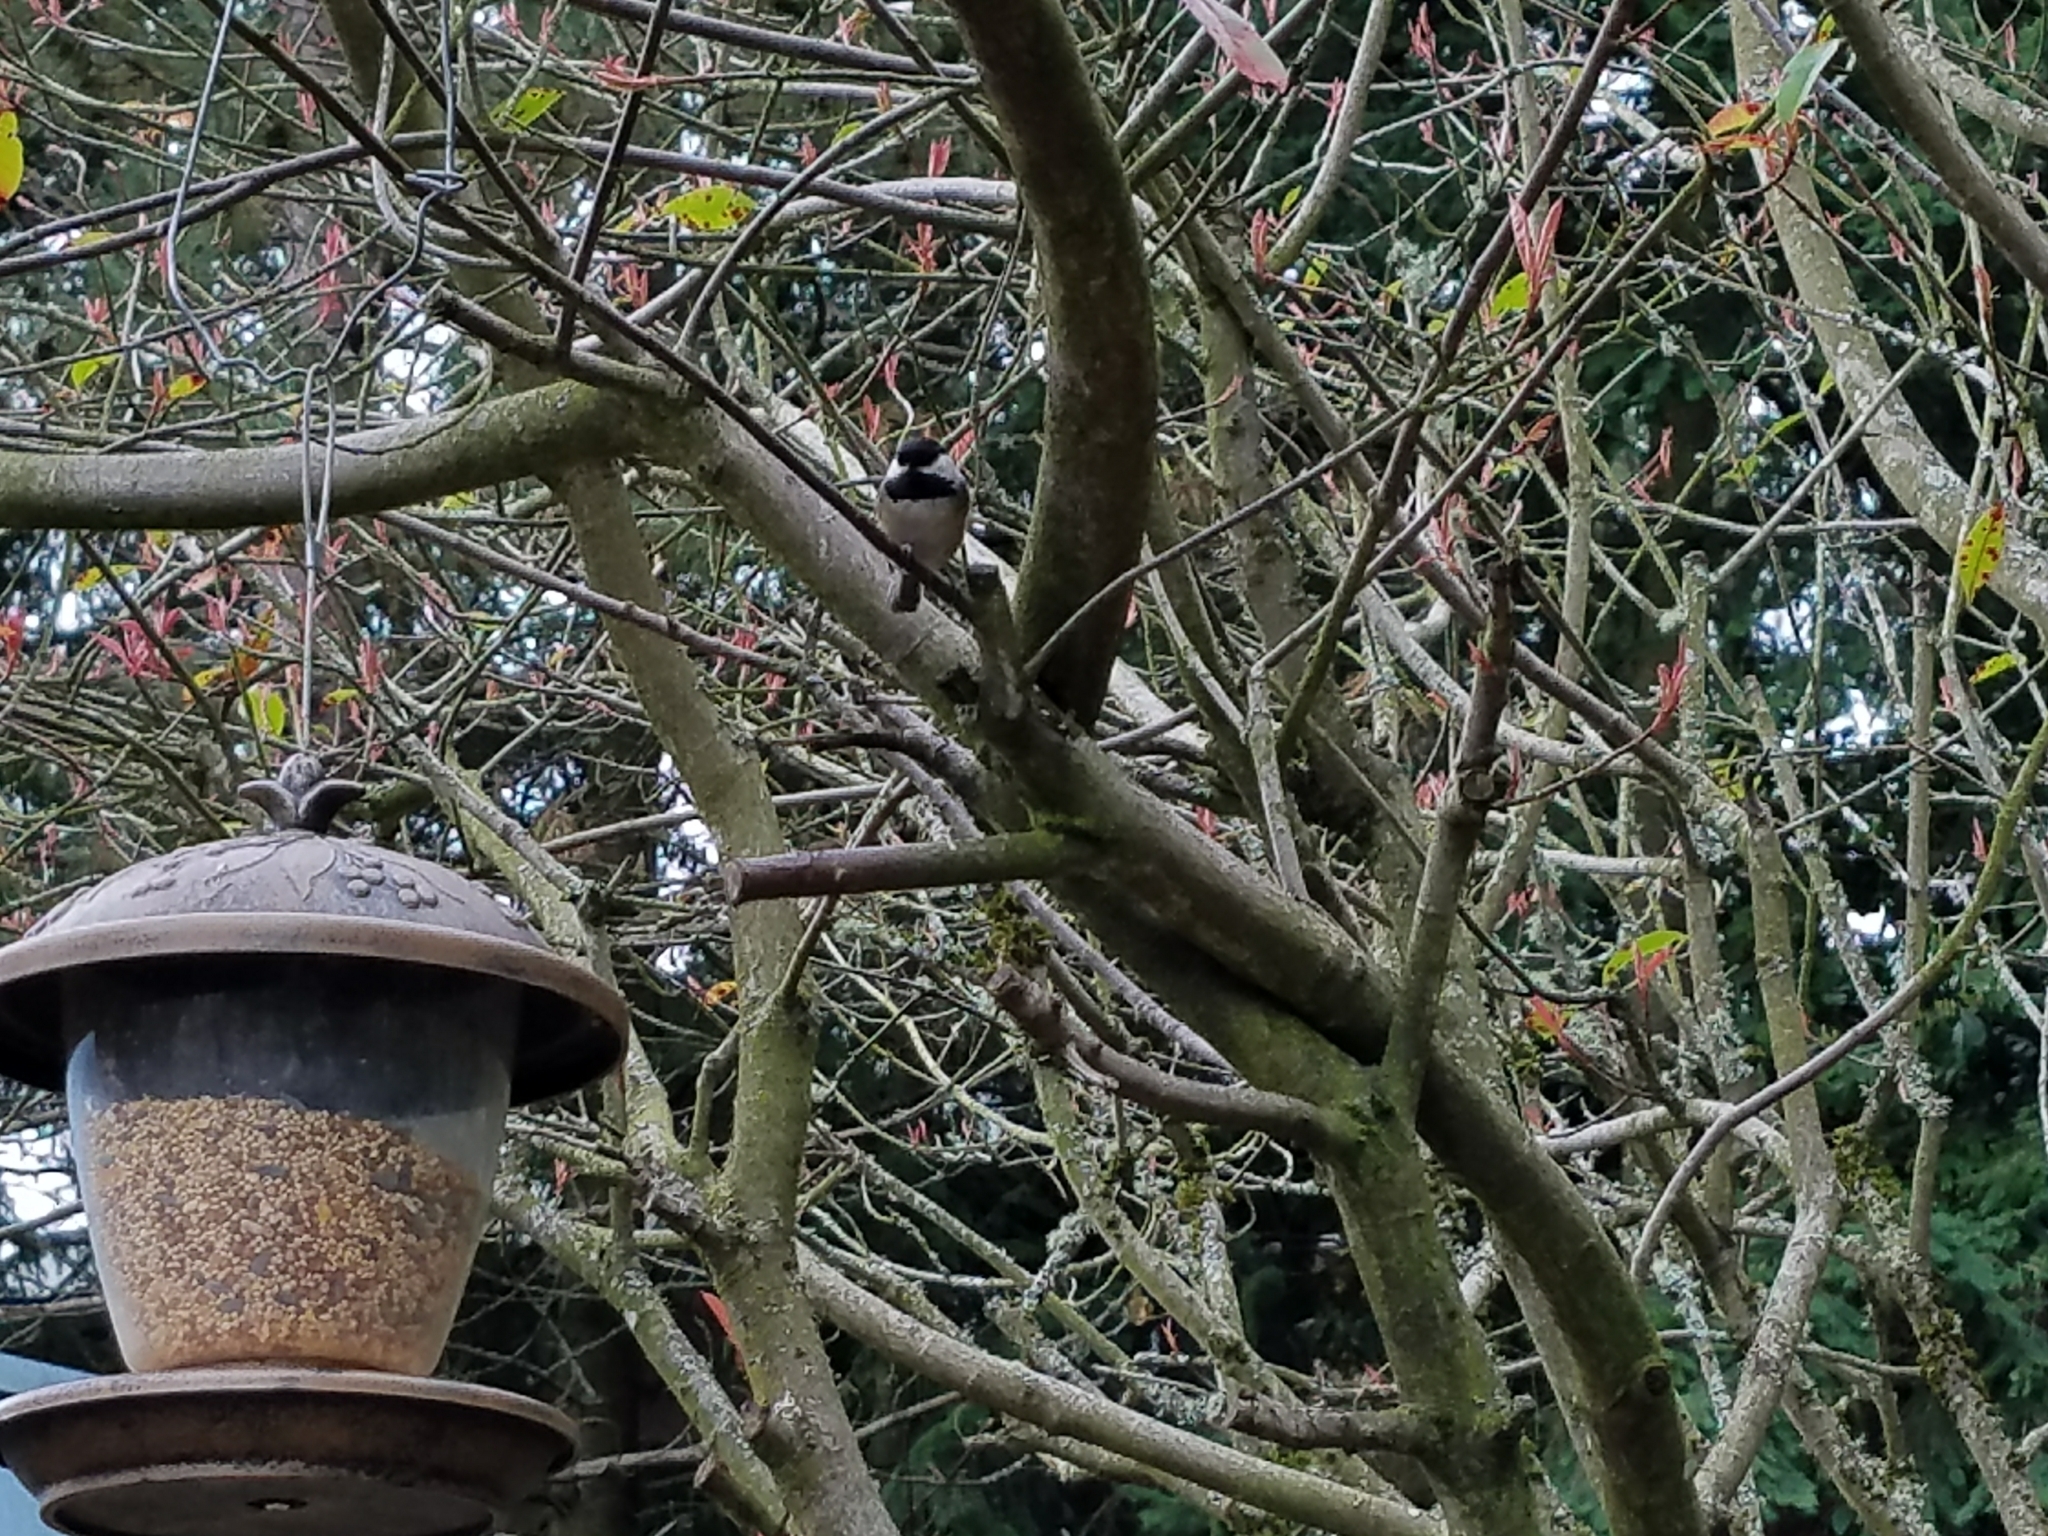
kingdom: Animalia
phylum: Chordata
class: Aves
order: Passeriformes
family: Paridae
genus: Poecile
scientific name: Poecile atricapillus
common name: Black-capped chickadee
